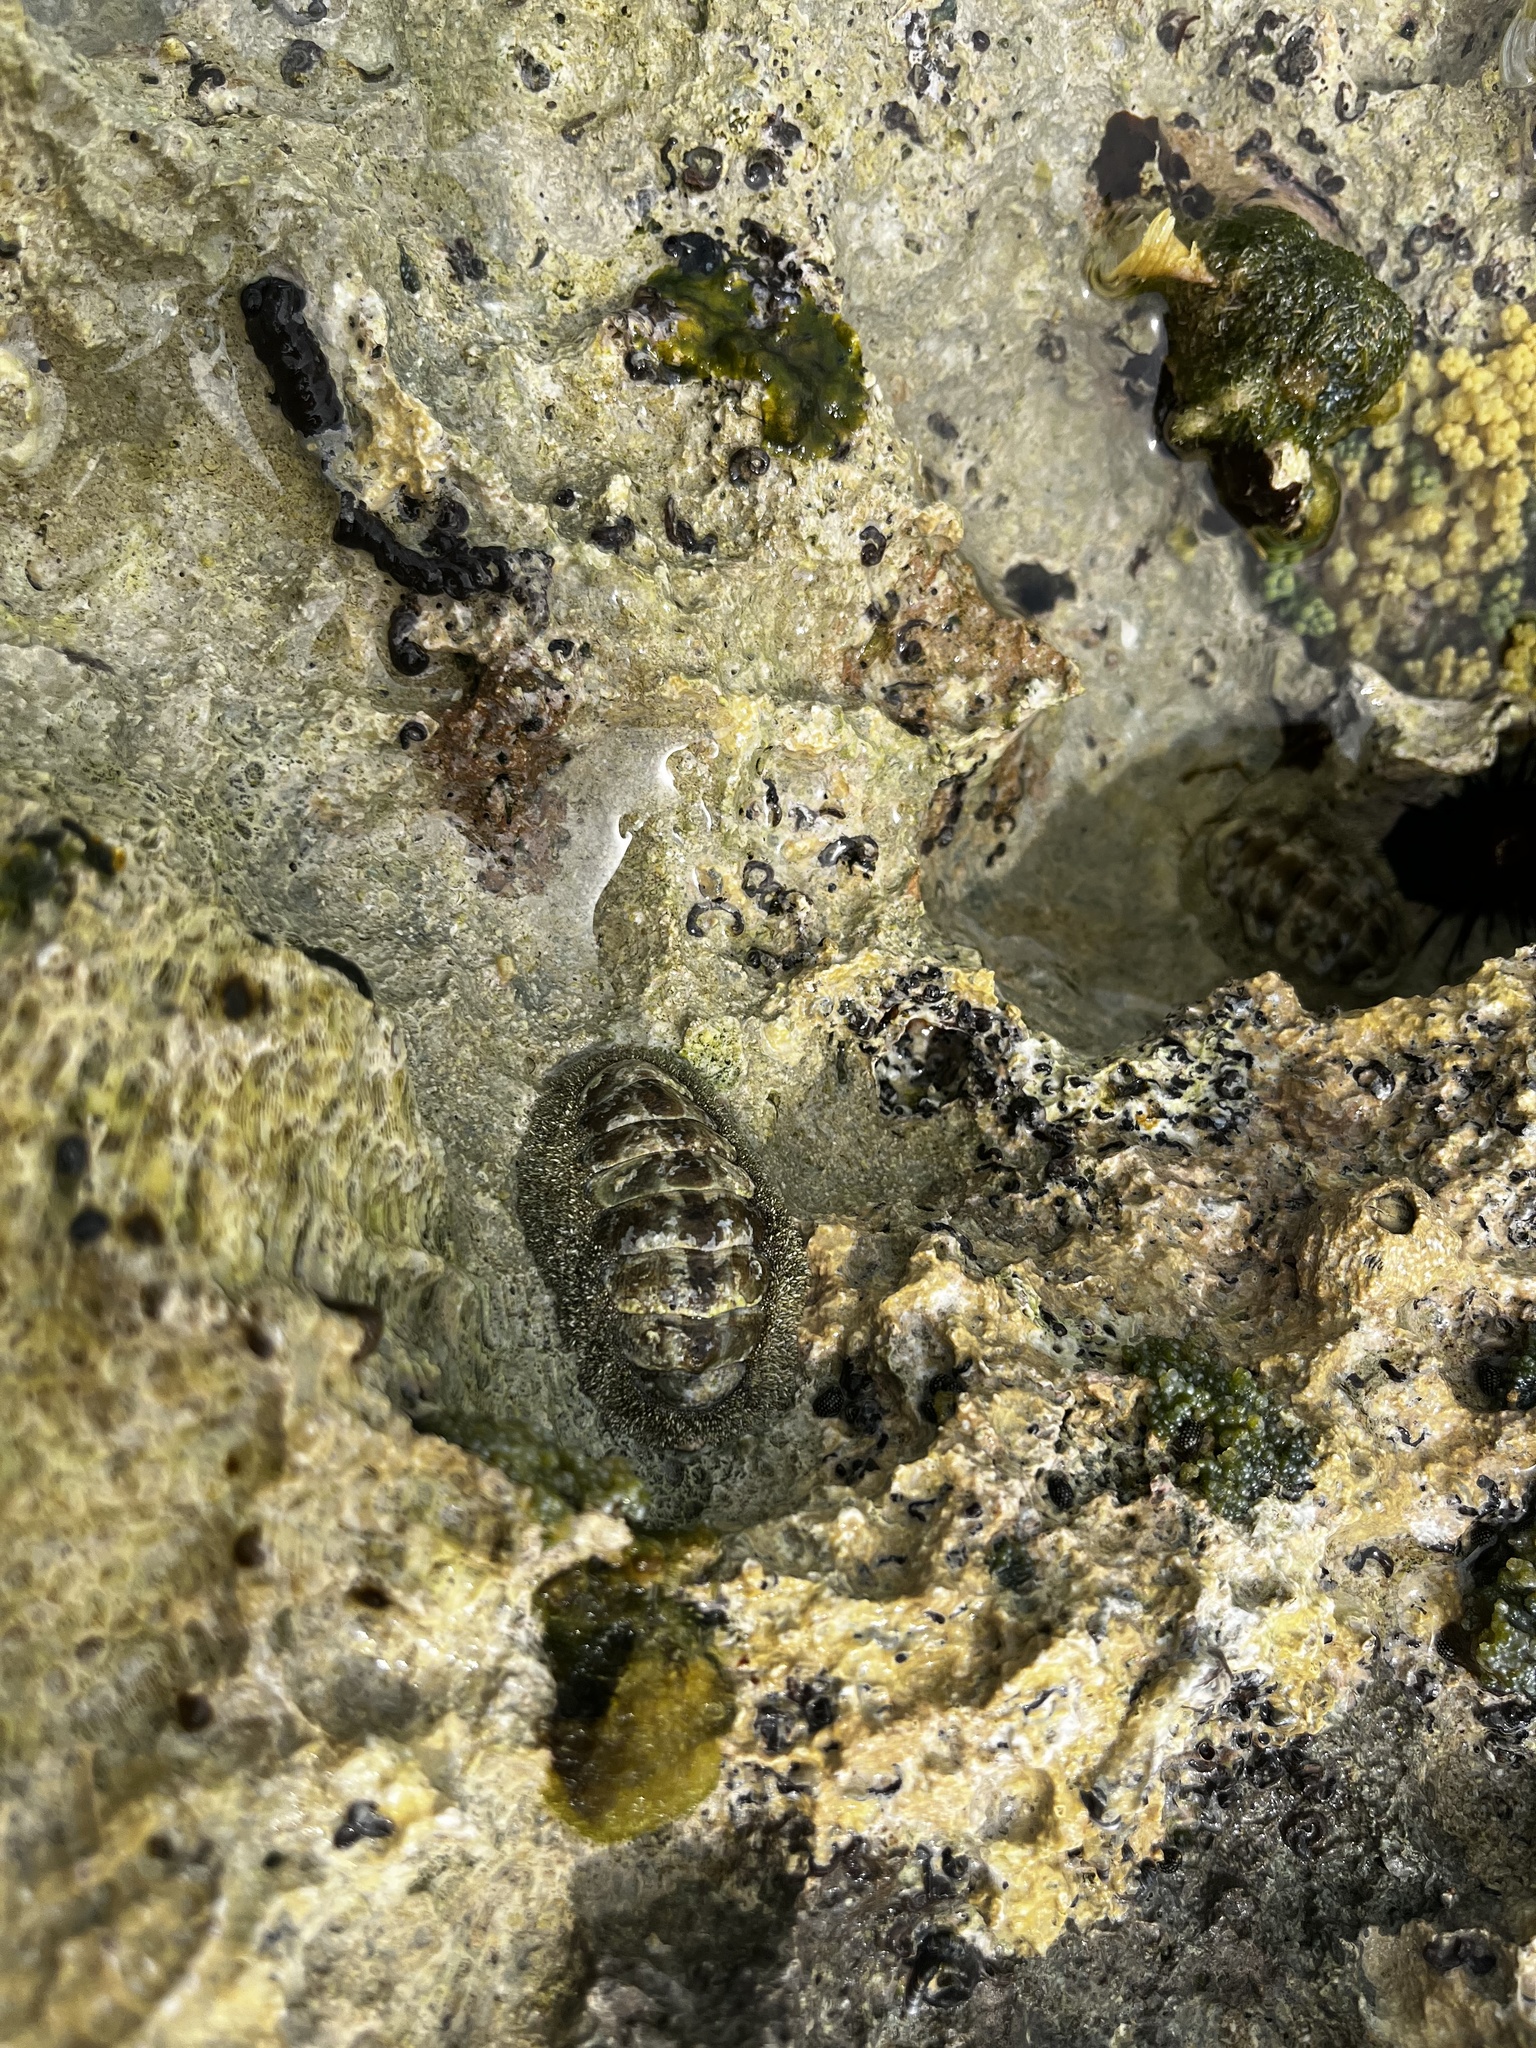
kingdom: Animalia
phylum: Mollusca
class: Polyplacophora
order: Chitonida
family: Chitonidae
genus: Acanthopleura
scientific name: Acanthopleura granulata
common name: West indian fuzzy chiton
